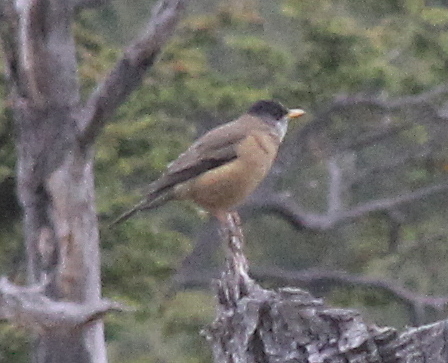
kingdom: Animalia
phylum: Chordata
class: Aves
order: Passeriformes
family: Turdidae
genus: Turdus
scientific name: Turdus falcklandii
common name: Austral thrush
